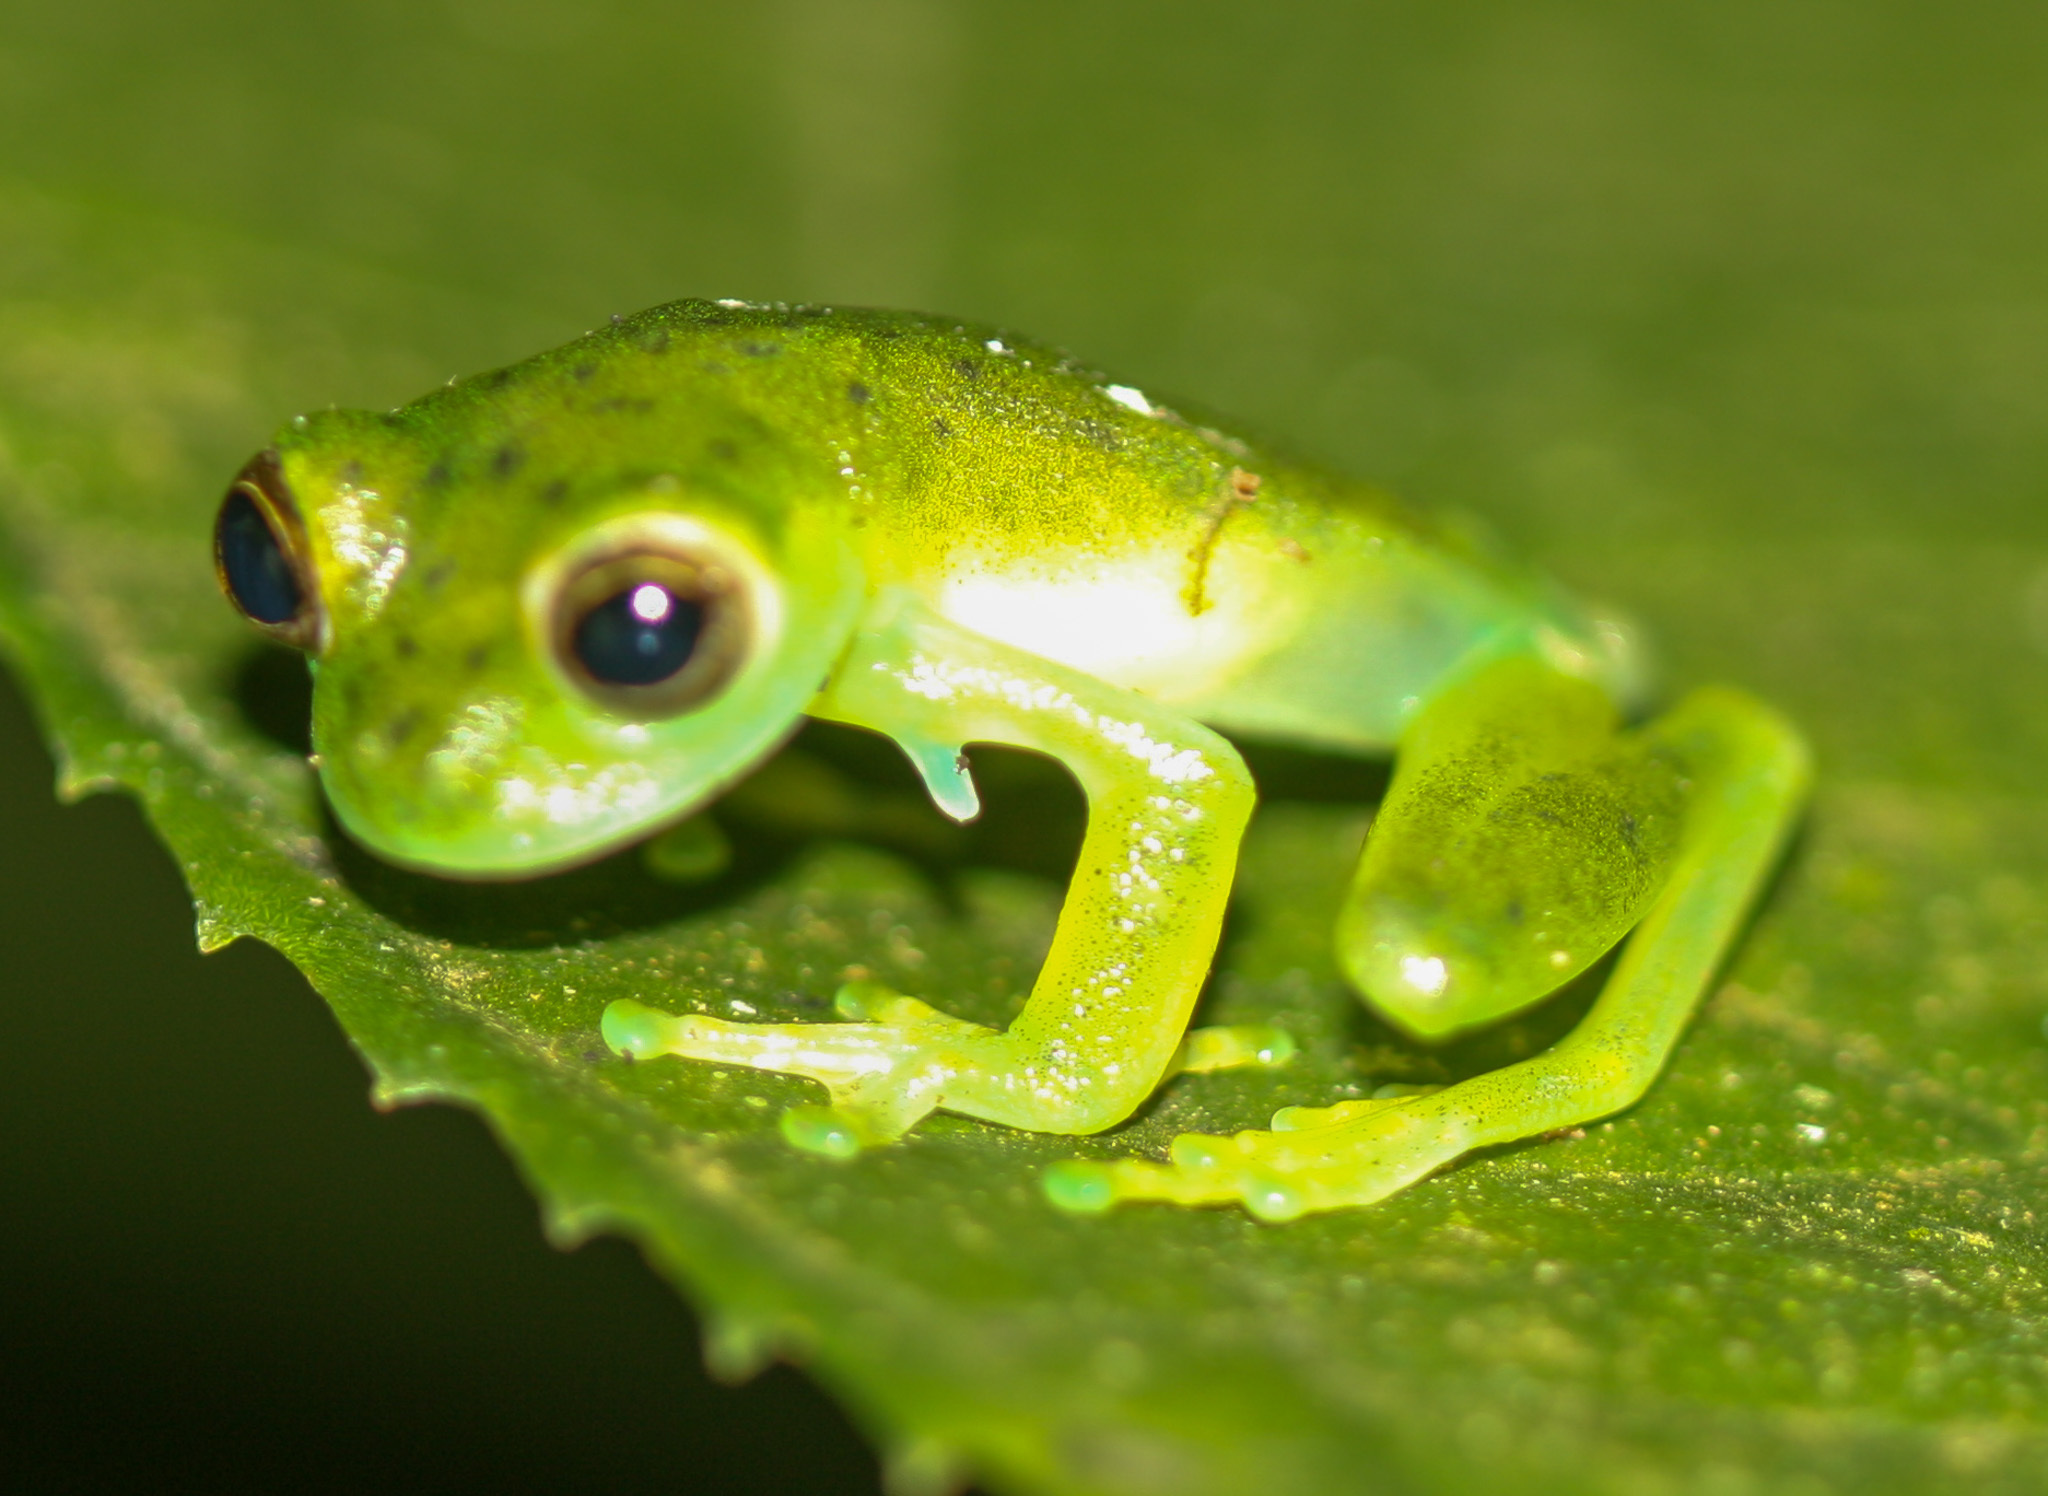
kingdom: Animalia
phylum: Chordata
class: Amphibia
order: Anura
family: Centrolenidae
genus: Espadarana
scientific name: Espadarana prosoblepon
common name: Rana de cristal variable
